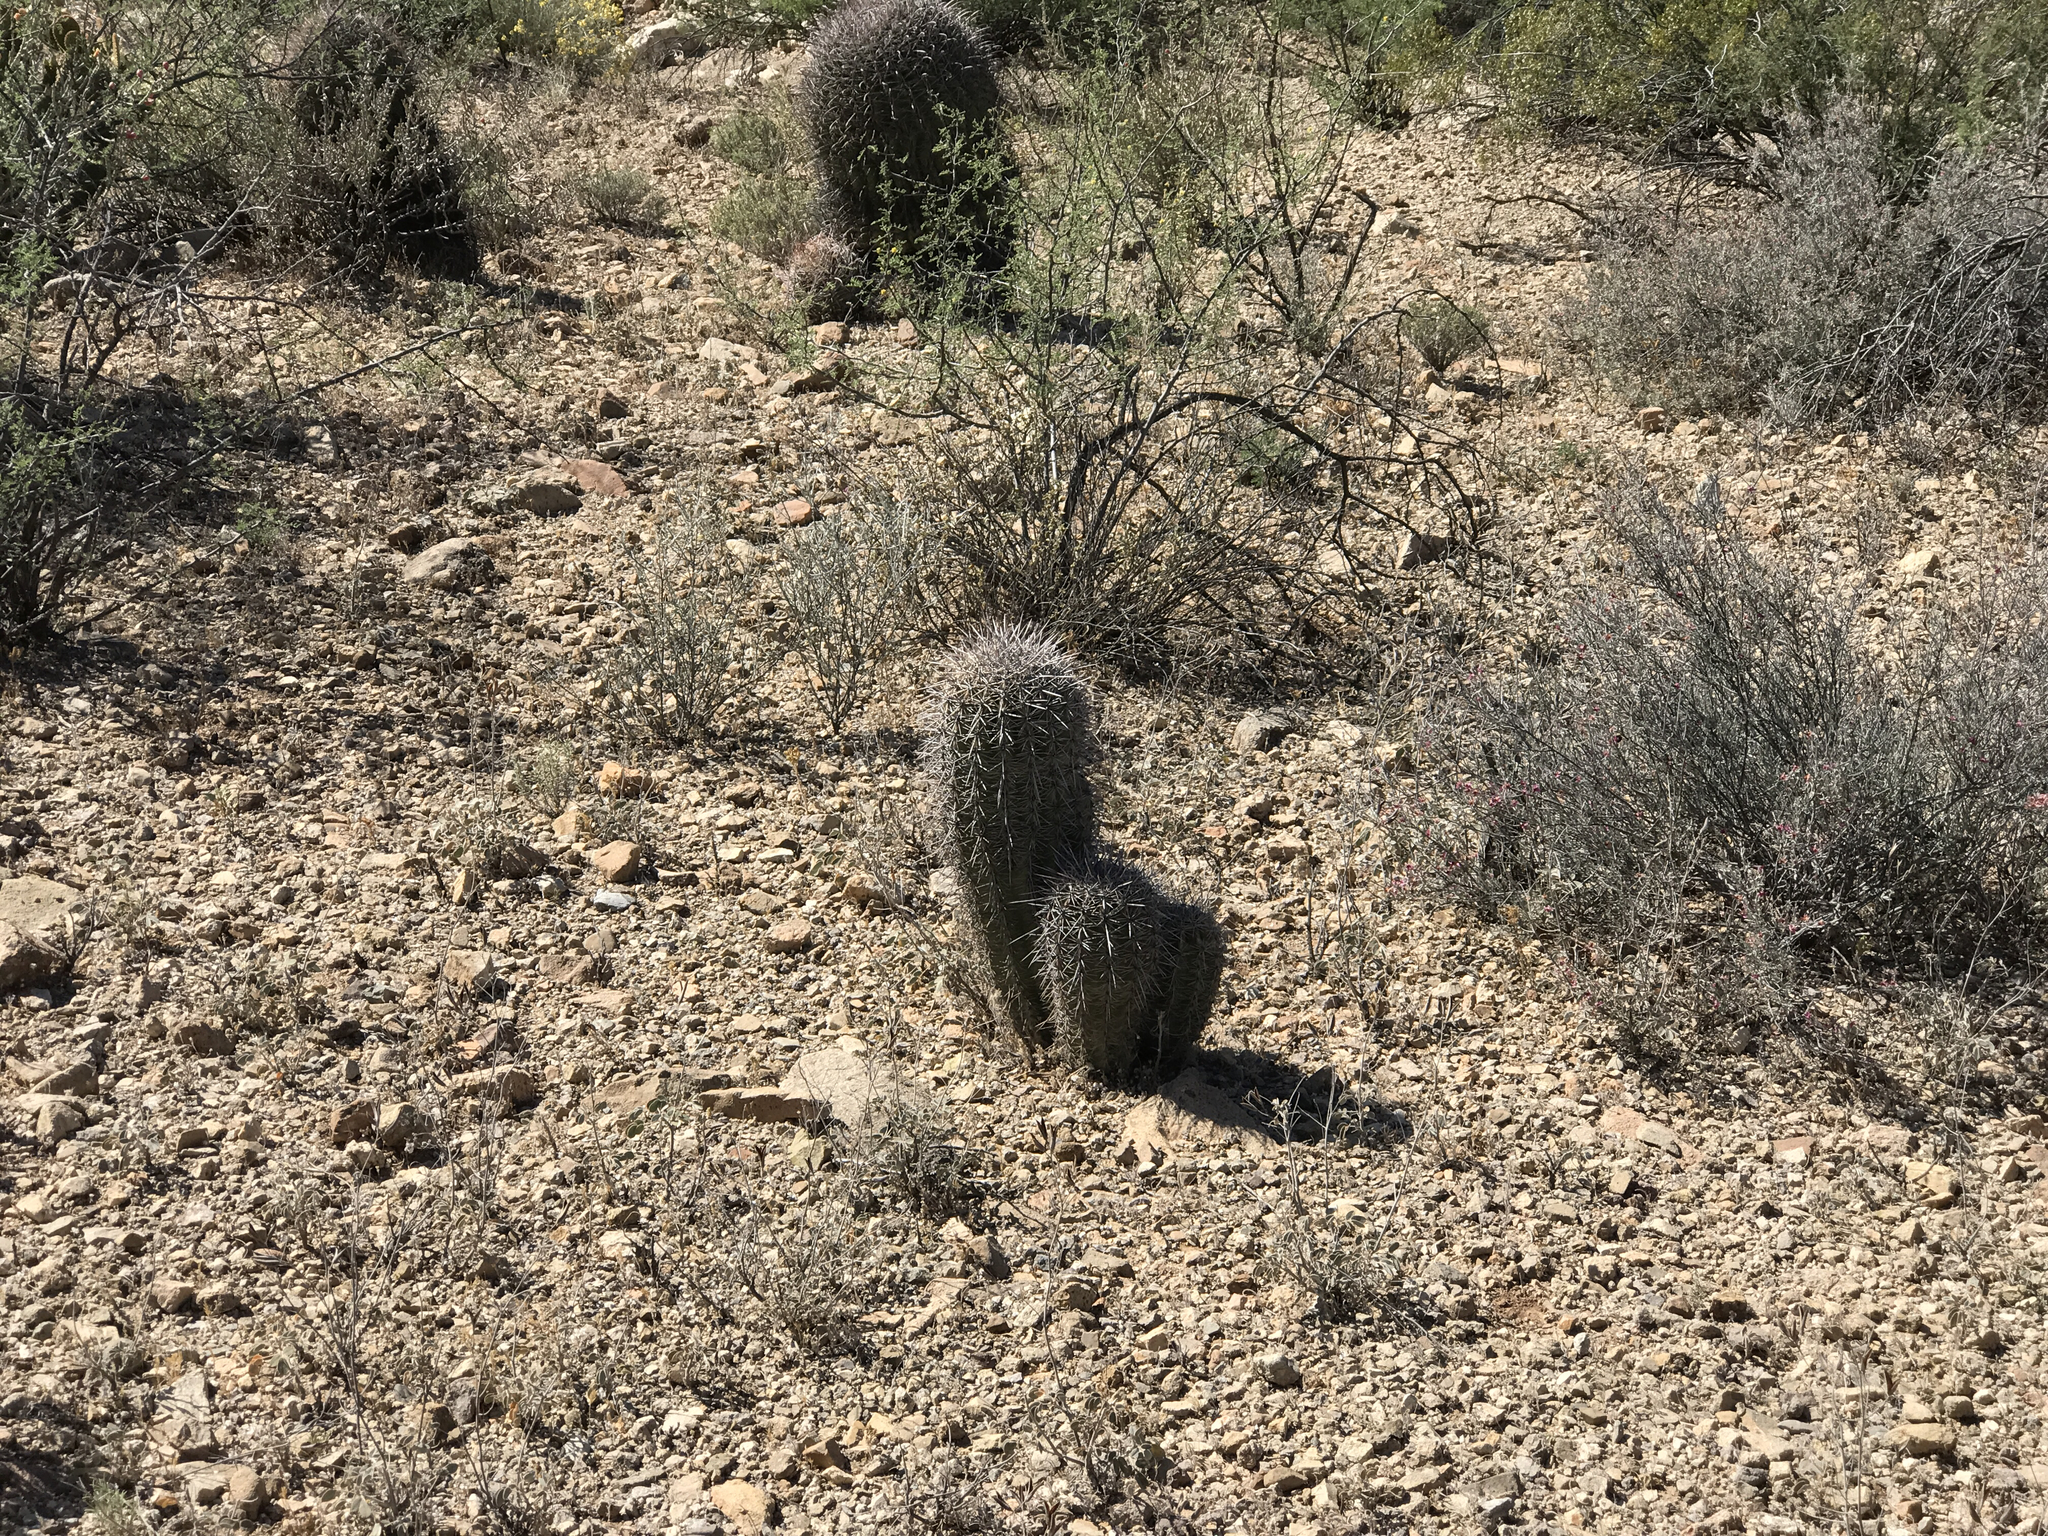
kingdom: Plantae
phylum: Tracheophyta
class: Magnoliopsida
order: Caryophyllales
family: Cactaceae
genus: Carnegiea
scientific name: Carnegiea gigantea
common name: Saguaro
